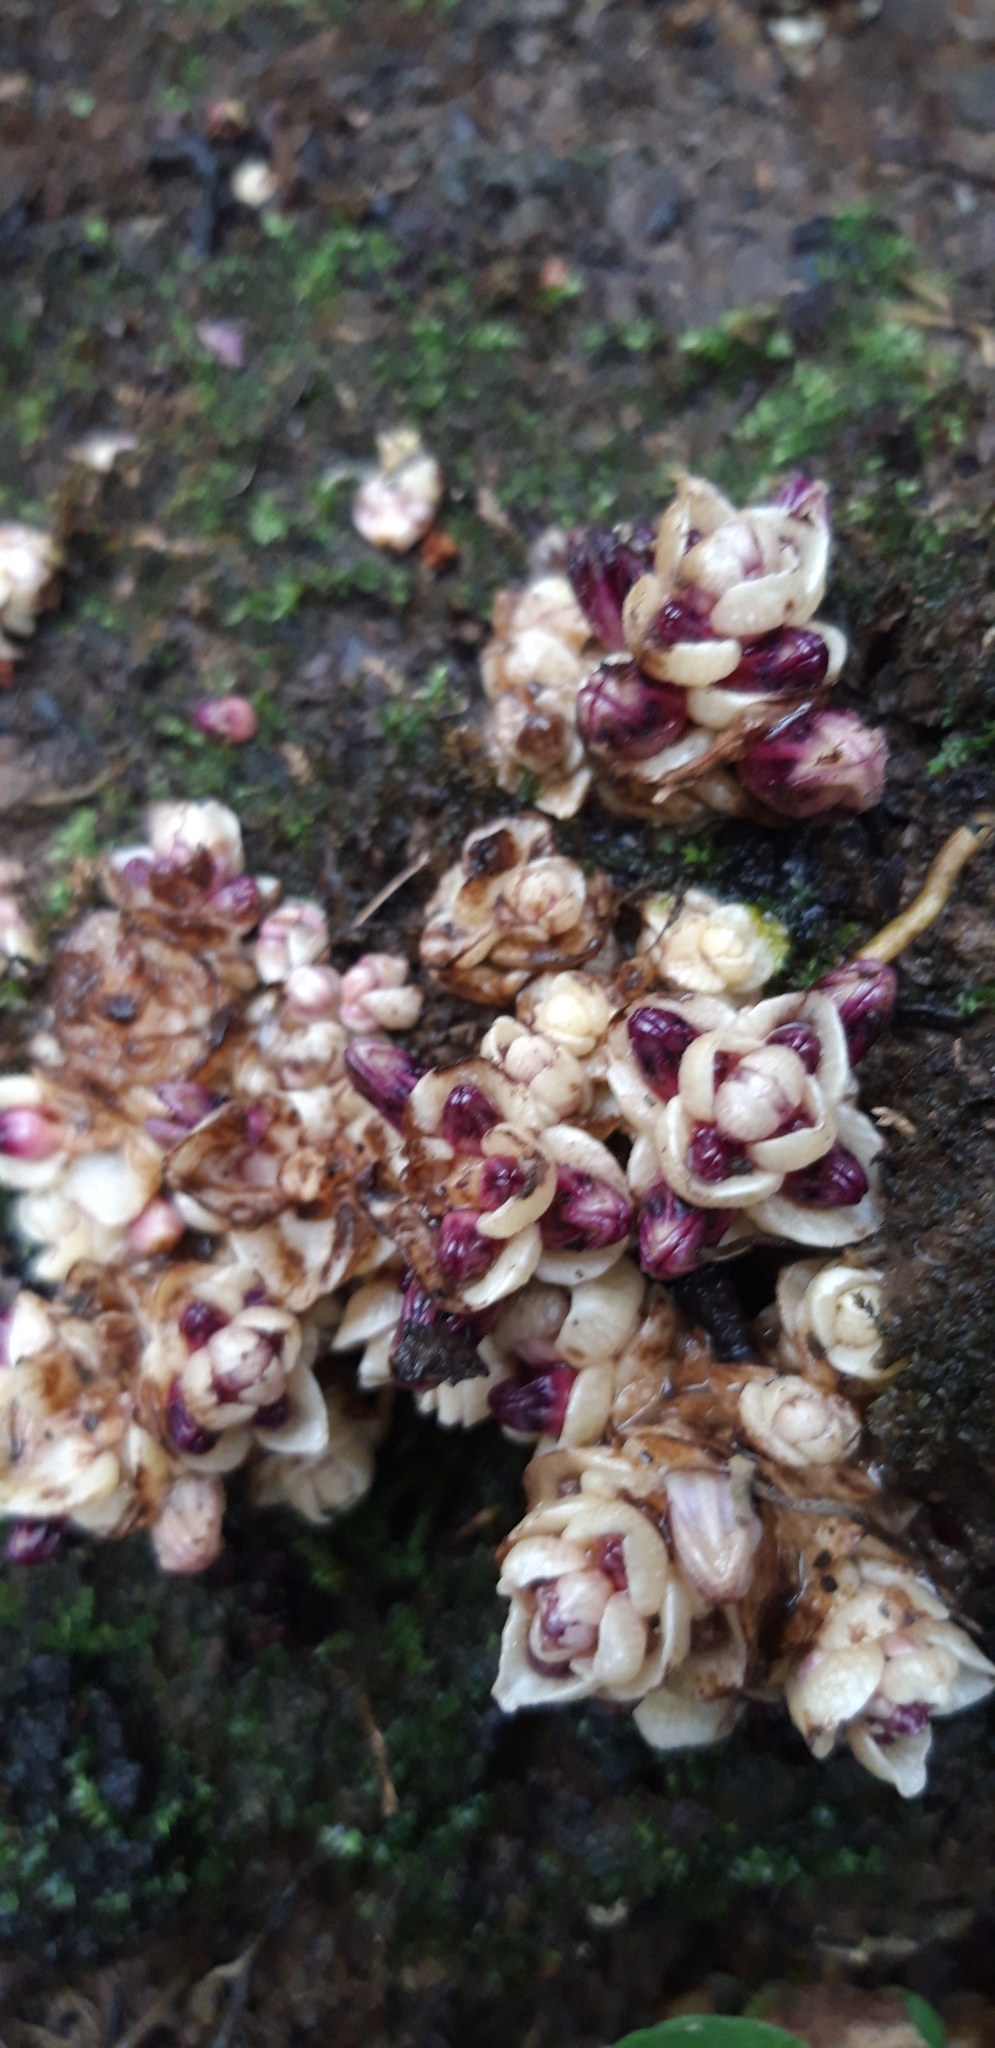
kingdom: Plantae
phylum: Tracheophyta
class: Magnoliopsida
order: Lamiales
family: Orobanchaceae
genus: Lathraea
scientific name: Lathraea clandestina
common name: Purple toothwort
